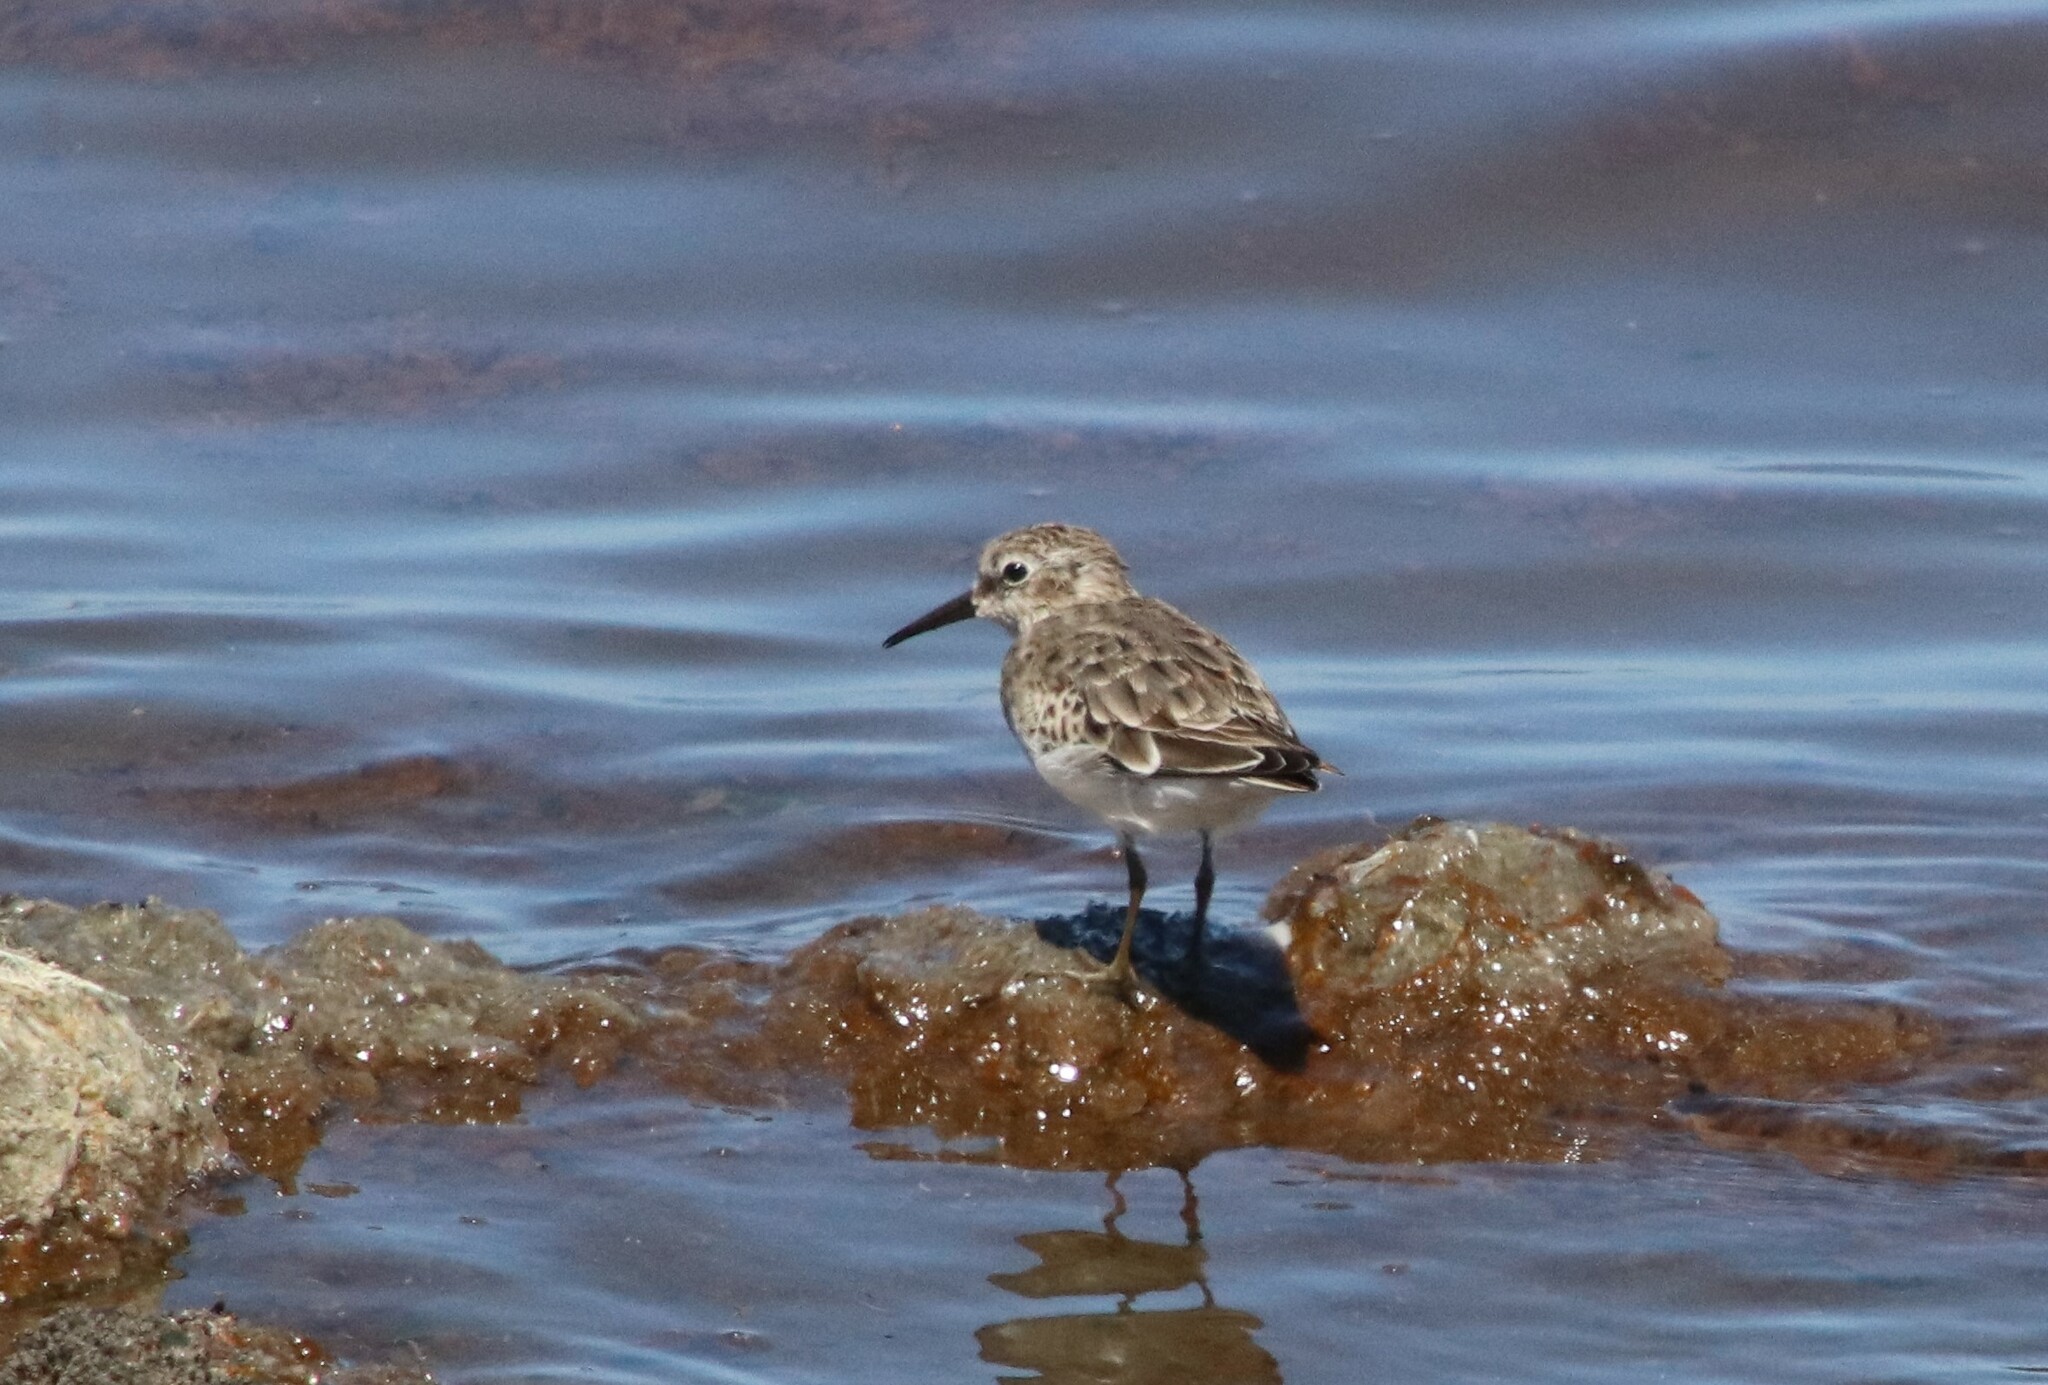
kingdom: Animalia
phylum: Chordata
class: Aves
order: Charadriiformes
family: Scolopacidae
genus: Calidris
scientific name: Calidris minutilla
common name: Least sandpiper
